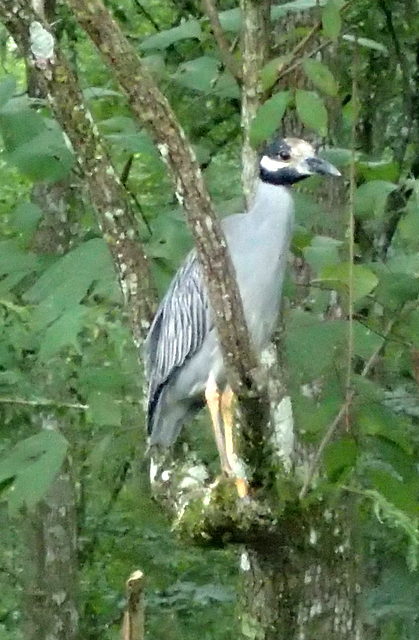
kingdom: Animalia
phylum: Chordata
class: Aves
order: Pelecaniformes
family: Ardeidae
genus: Nyctanassa
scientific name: Nyctanassa violacea
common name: Yellow-crowned night heron
